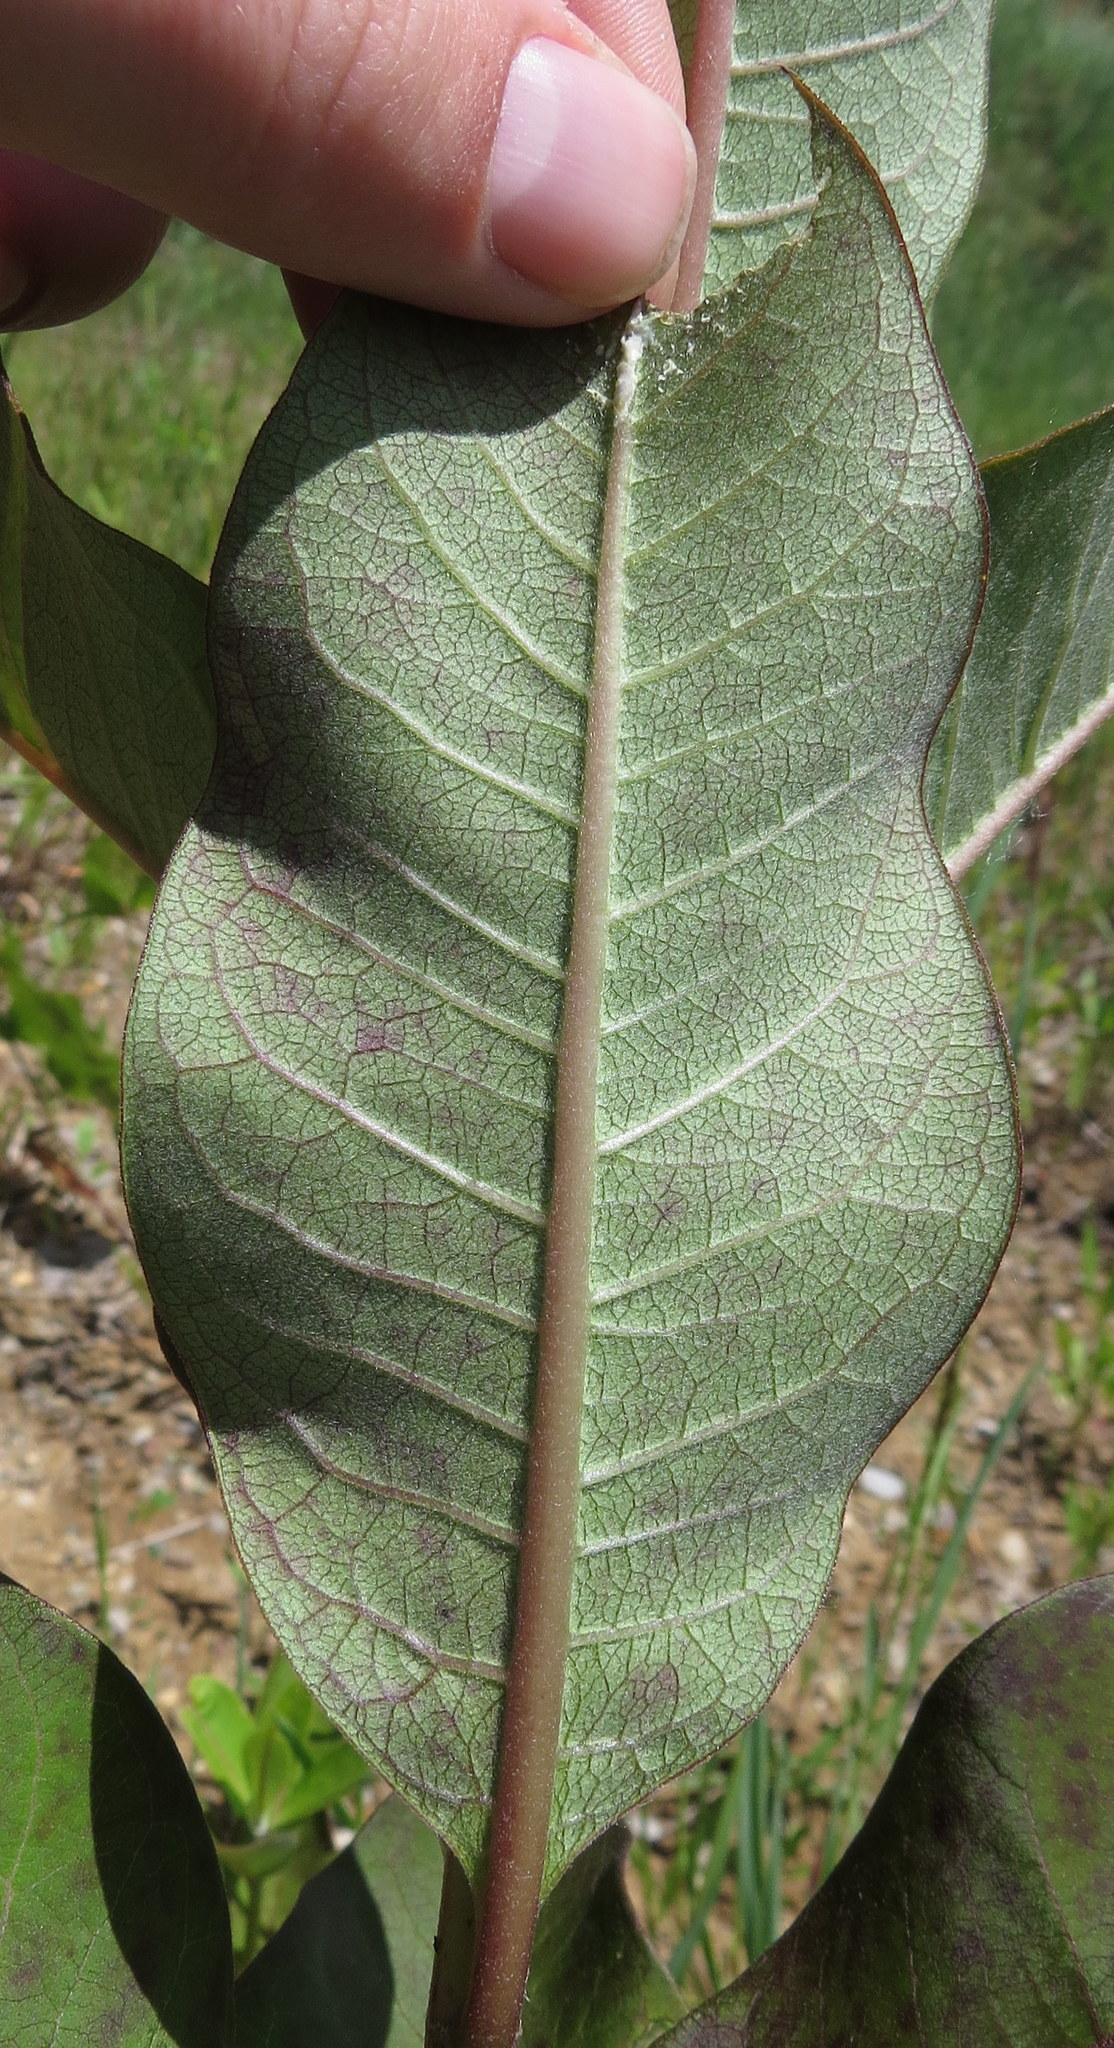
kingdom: Plantae
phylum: Tracheophyta
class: Magnoliopsida
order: Gentianales
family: Apocynaceae
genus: Asclepias
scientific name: Asclepias syriaca
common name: Common milkweed
